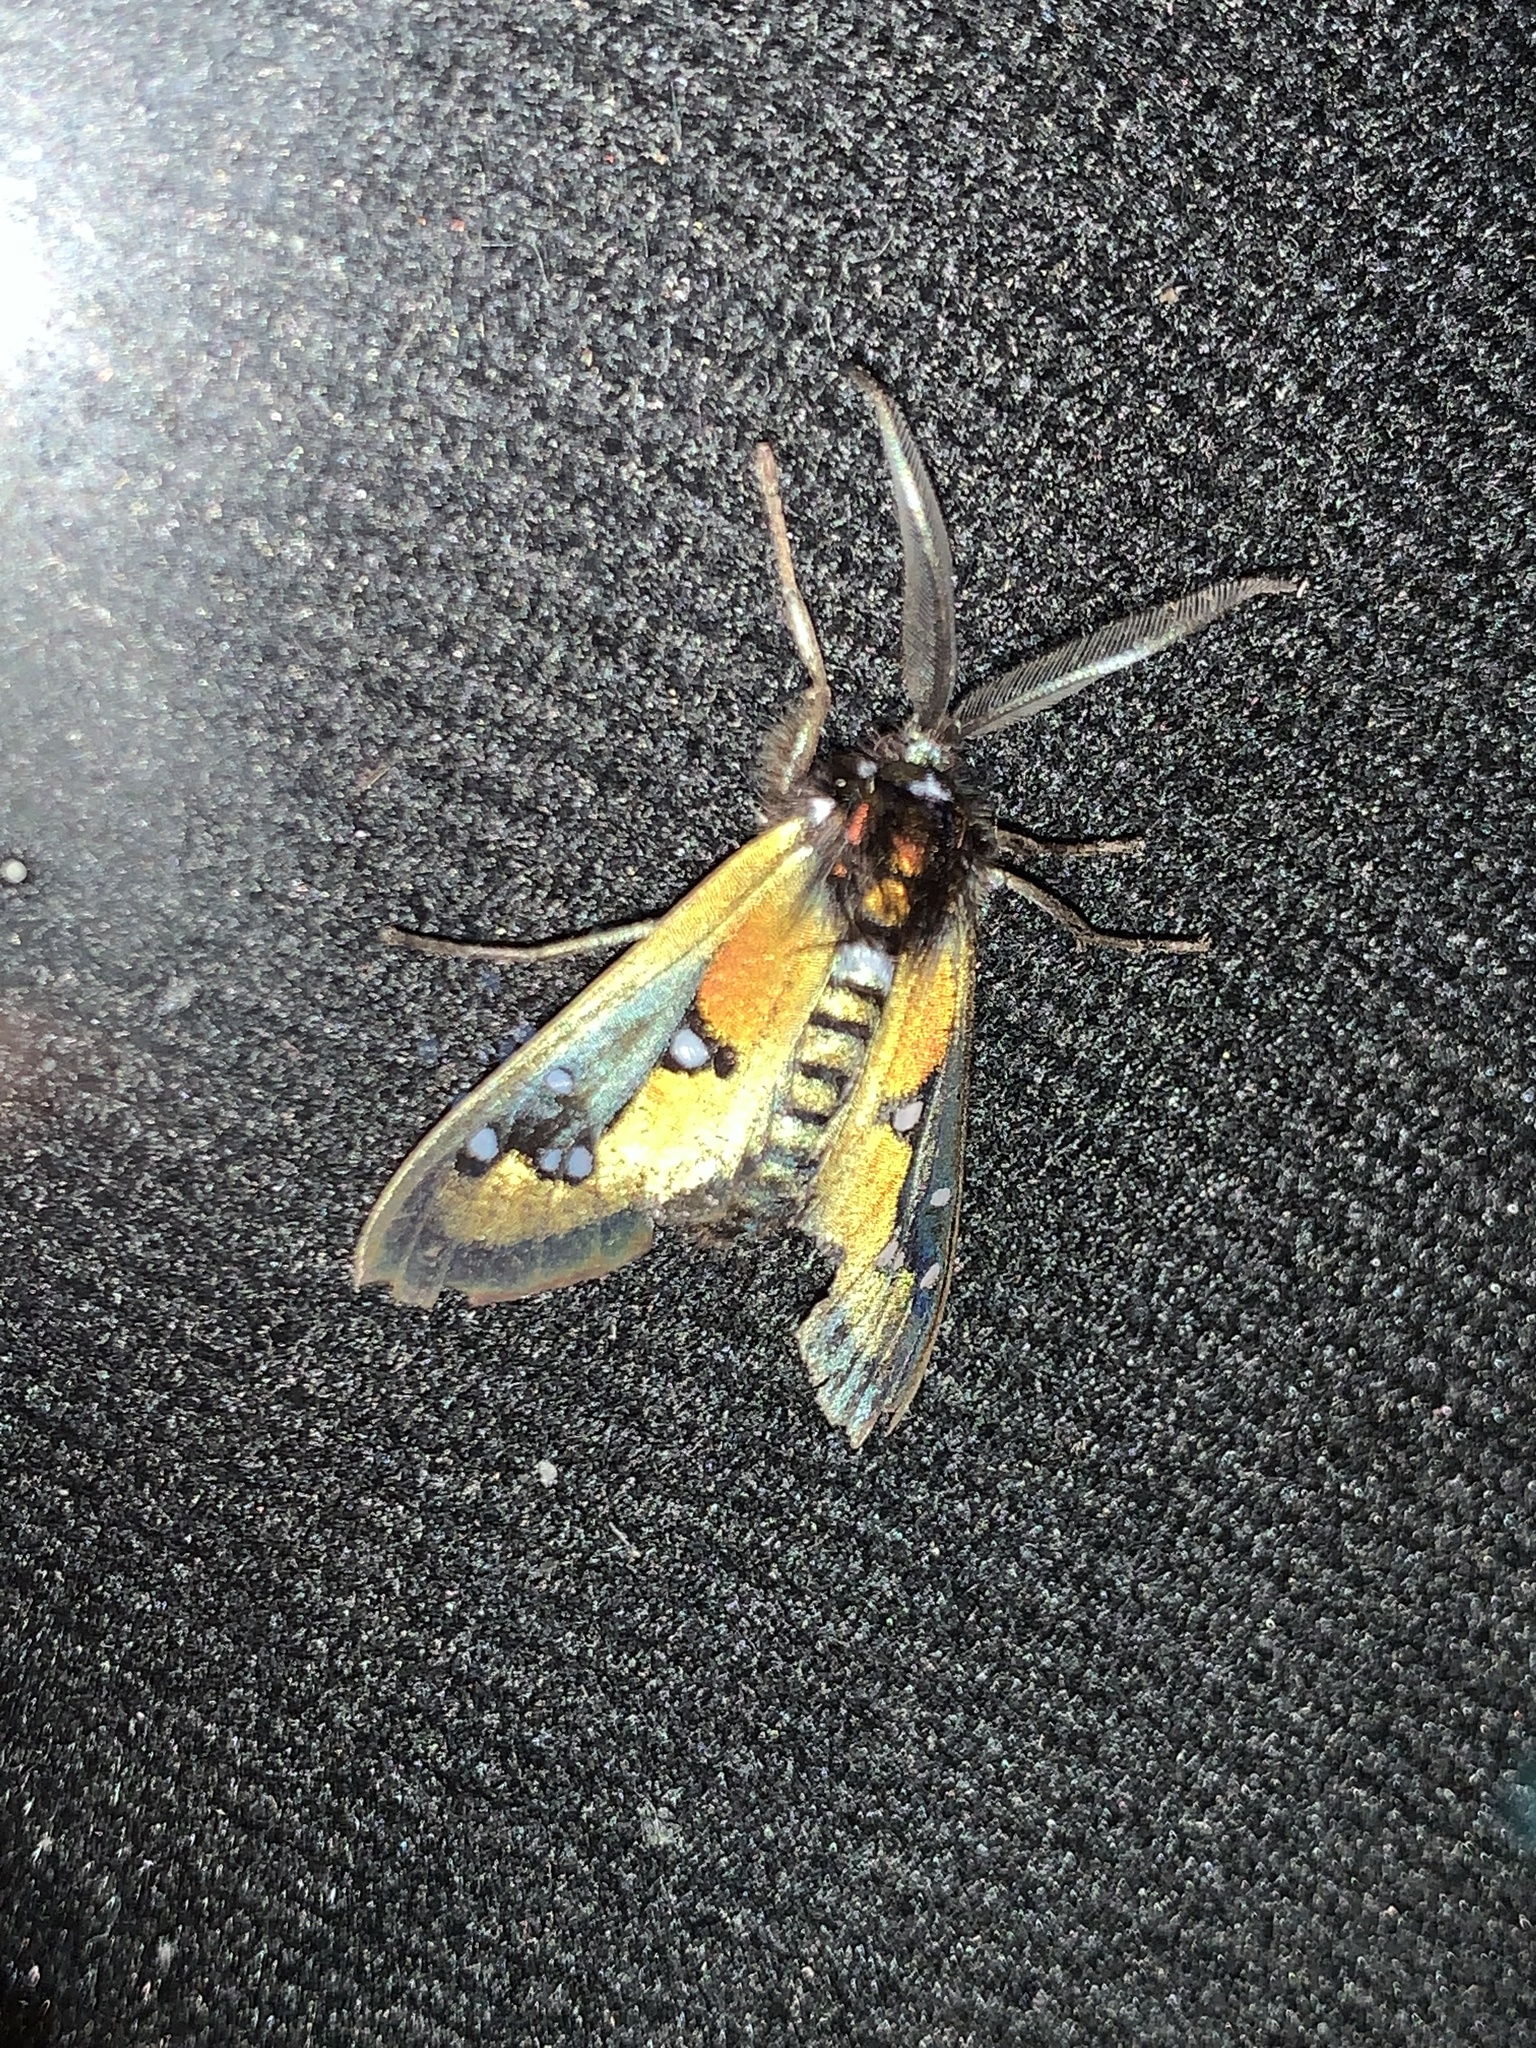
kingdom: Animalia
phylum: Arthropoda
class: Insecta
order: Lepidoptera
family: Erebidae
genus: Chrysocale
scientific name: Chrysocale regalis
